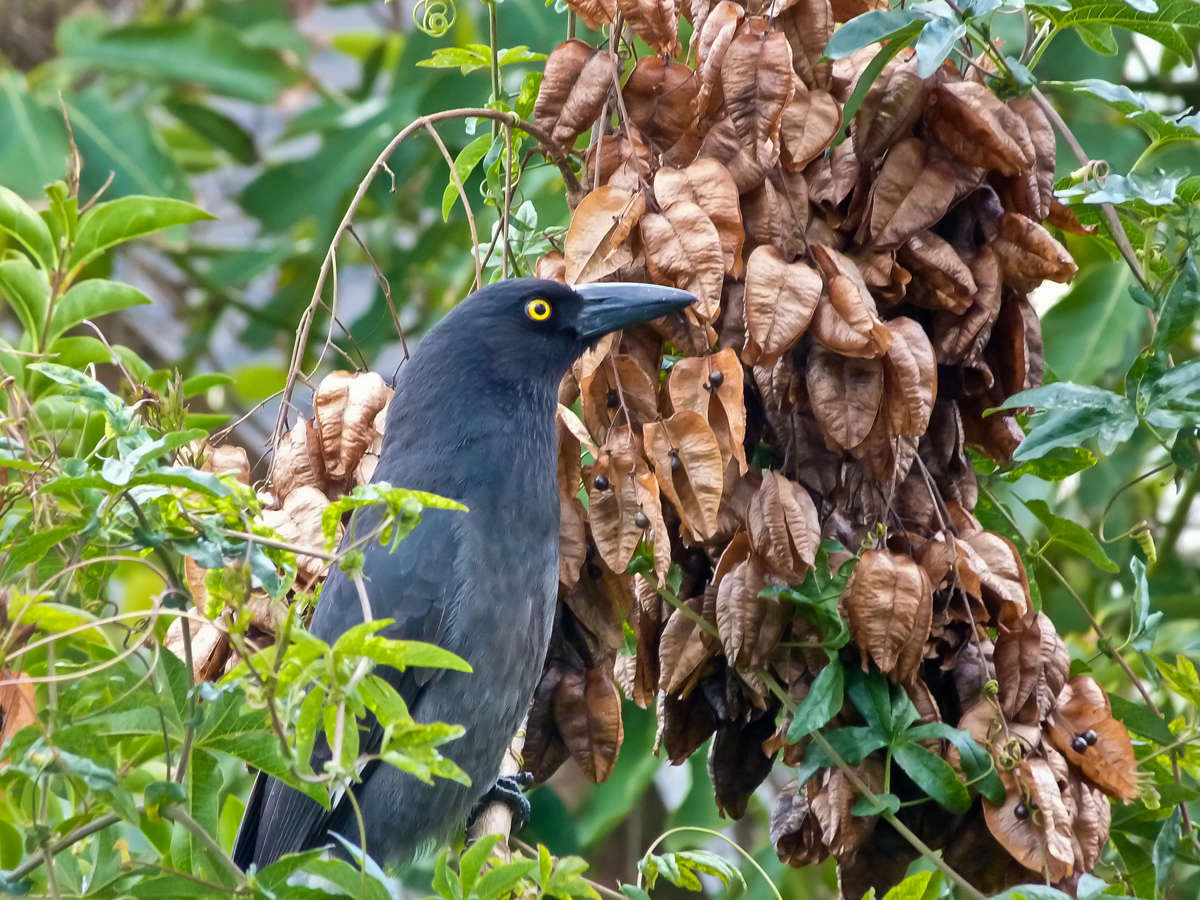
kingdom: Animalia
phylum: Chordata
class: Aves
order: Passeriformes
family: Cracticidae
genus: Strepera
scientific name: Strepera graculina
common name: Pied currawong
